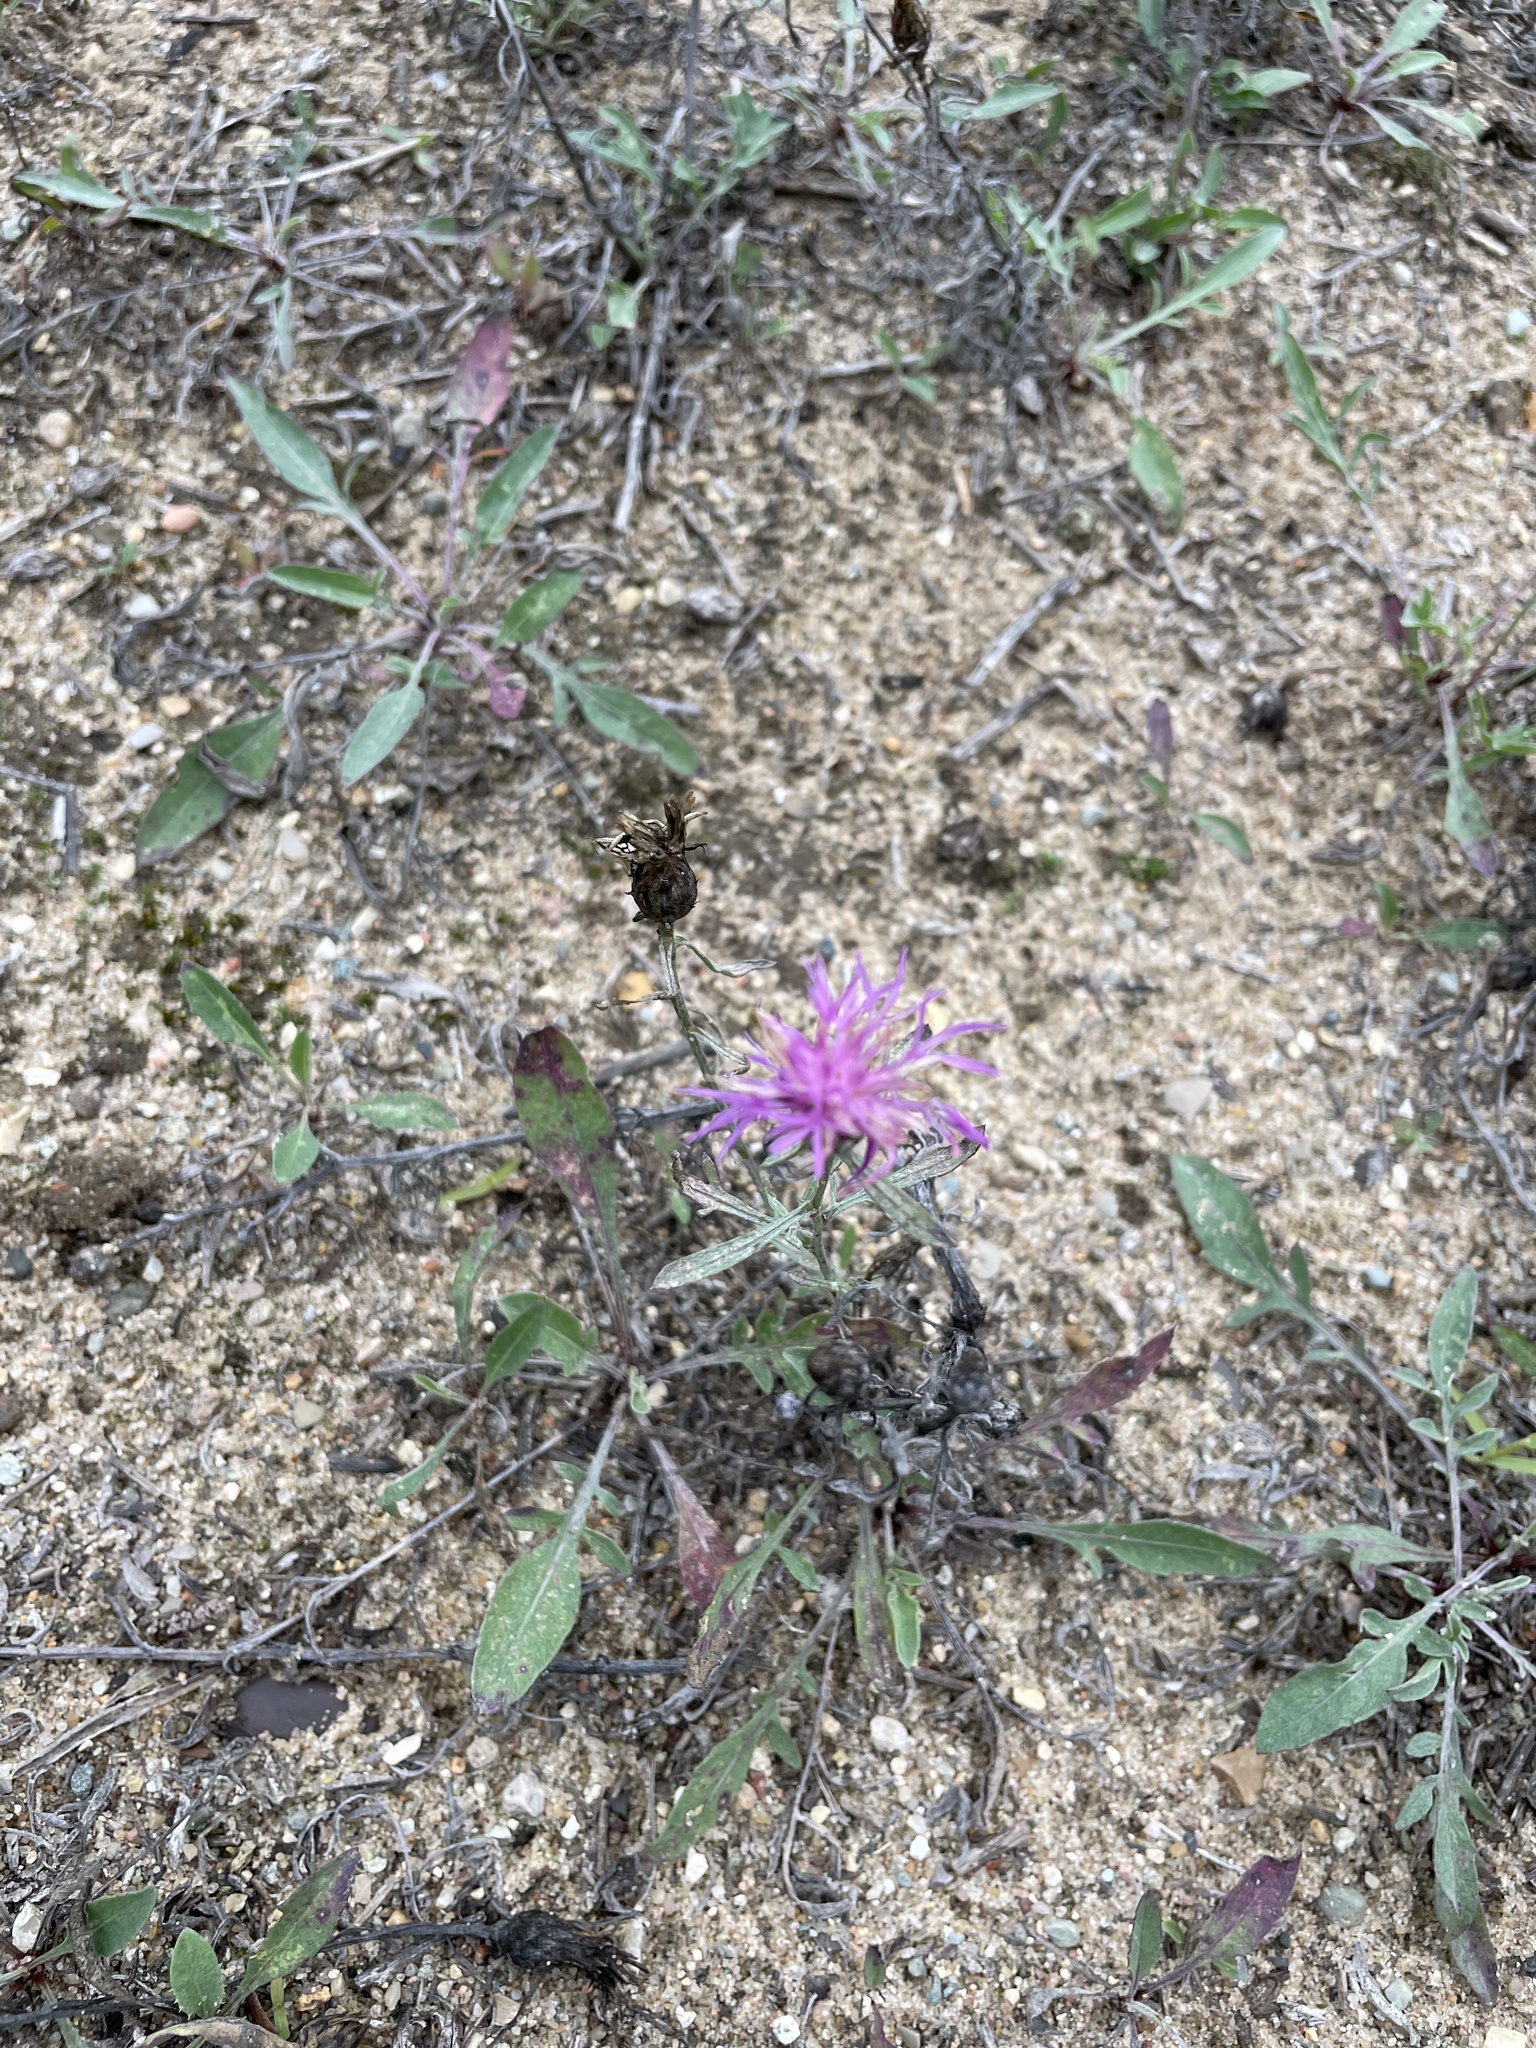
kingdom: Plantae
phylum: Tracheophyta
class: Magnoliopsida
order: Asterales
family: Asteraceae
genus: Centaurea
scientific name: Centaurea stoebe
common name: Spotted knapweed
